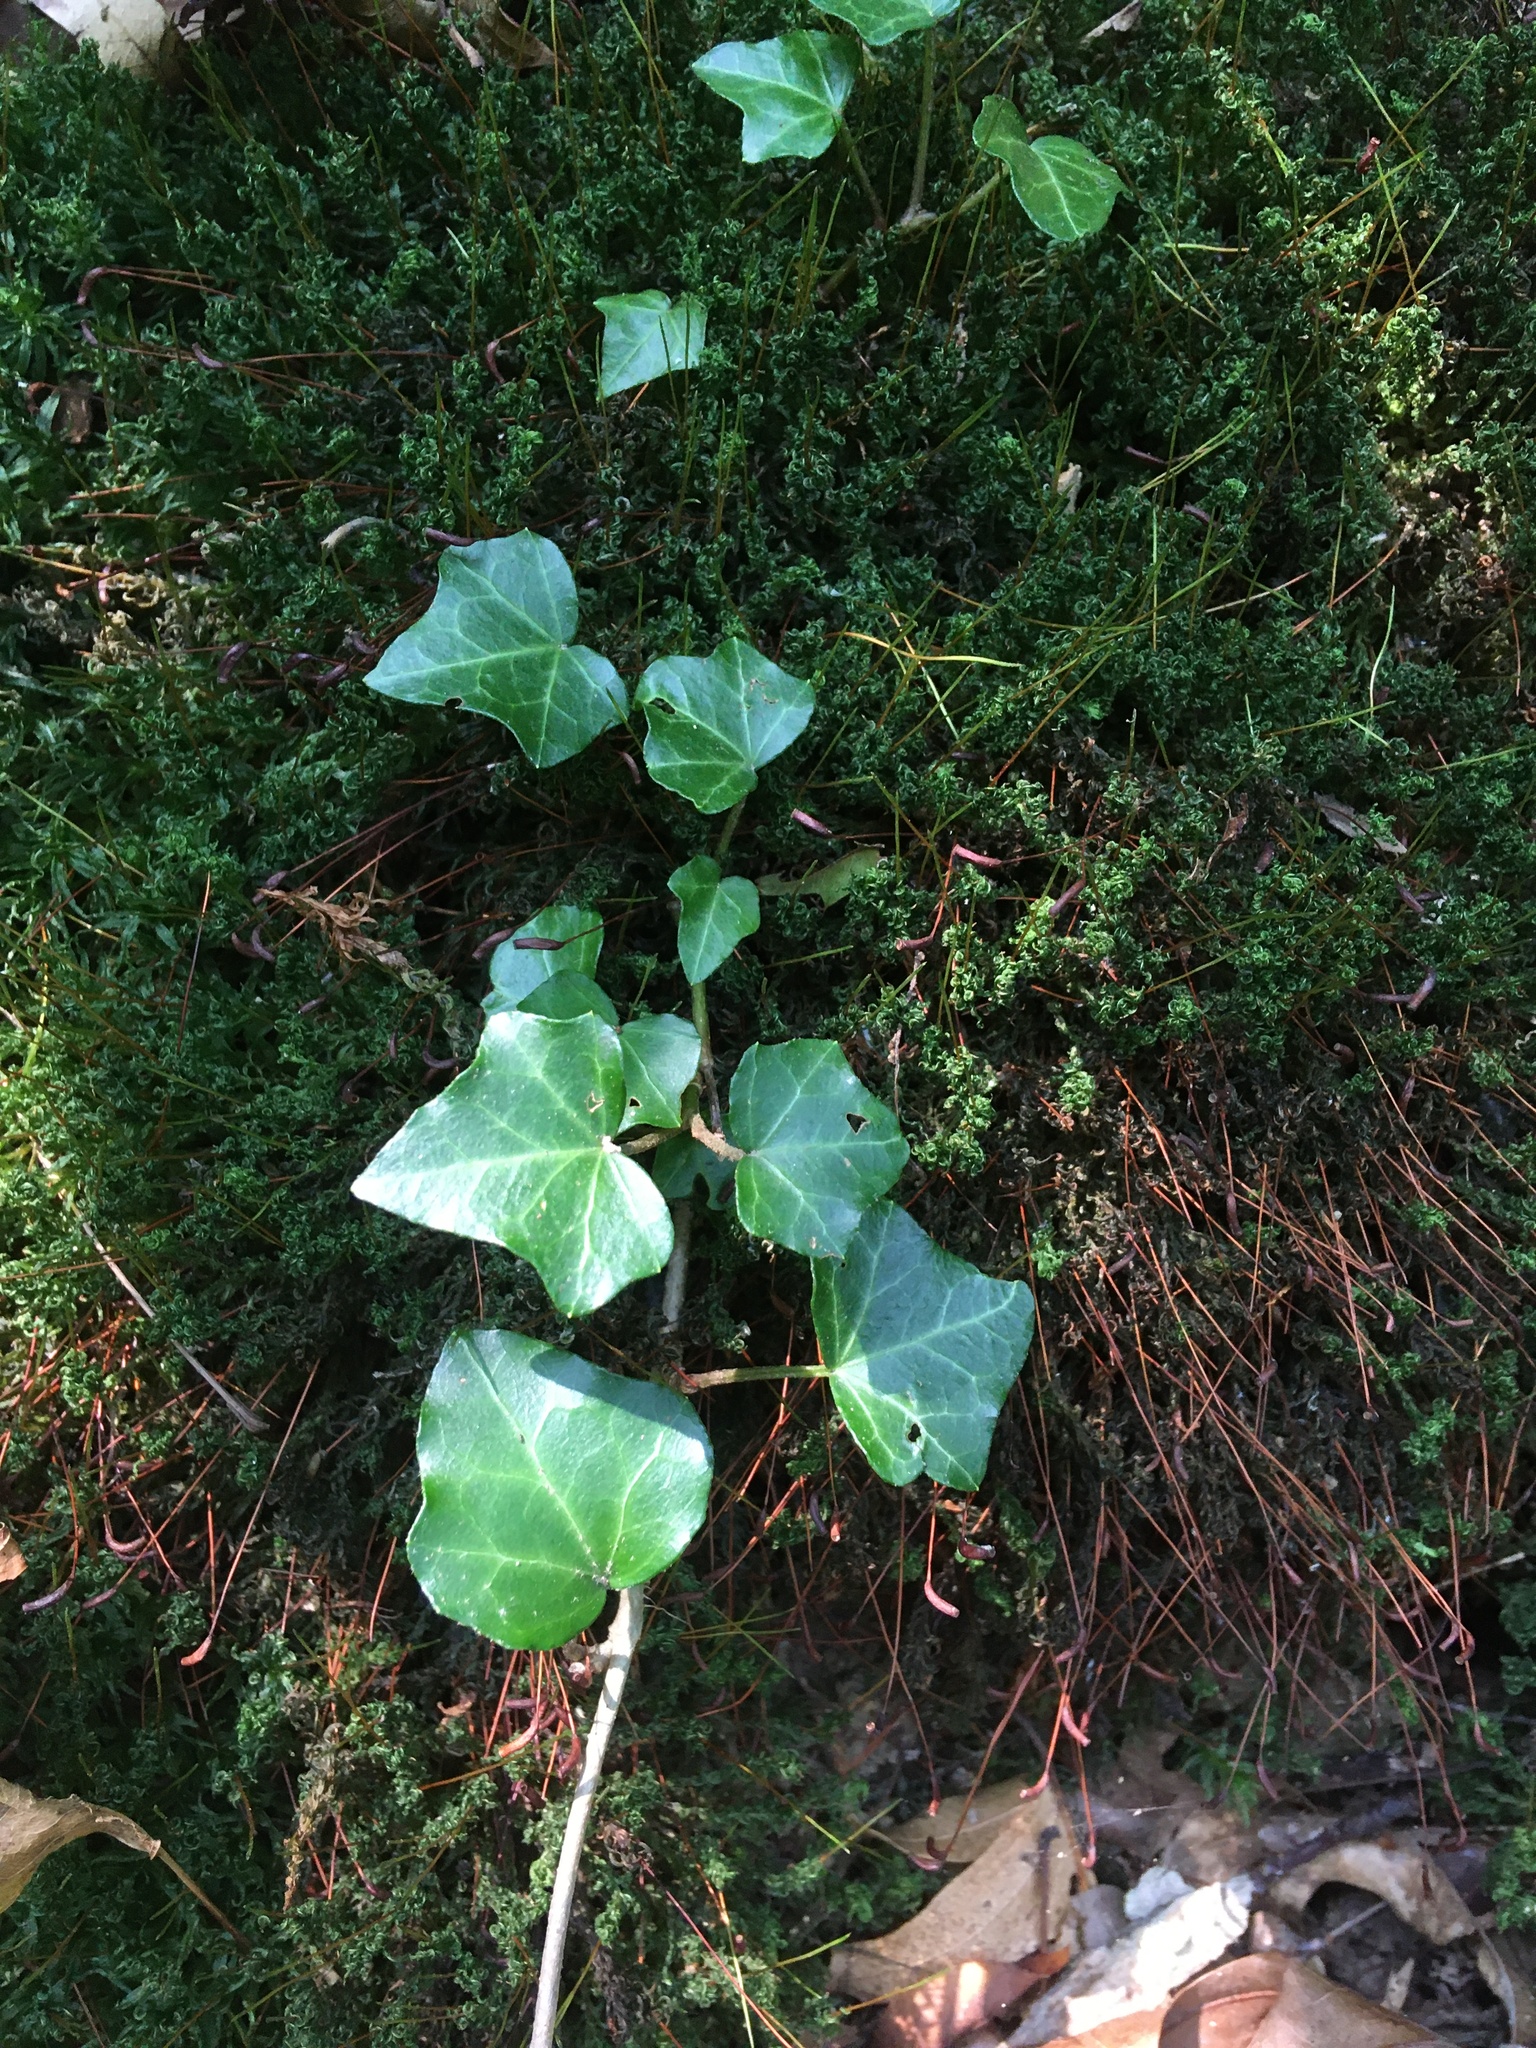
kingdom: Plantae
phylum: Tracheophyta
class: Magnoliopsida
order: Apiales
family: Araliaceae
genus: Hedera
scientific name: Hedera helix
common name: Ivy
